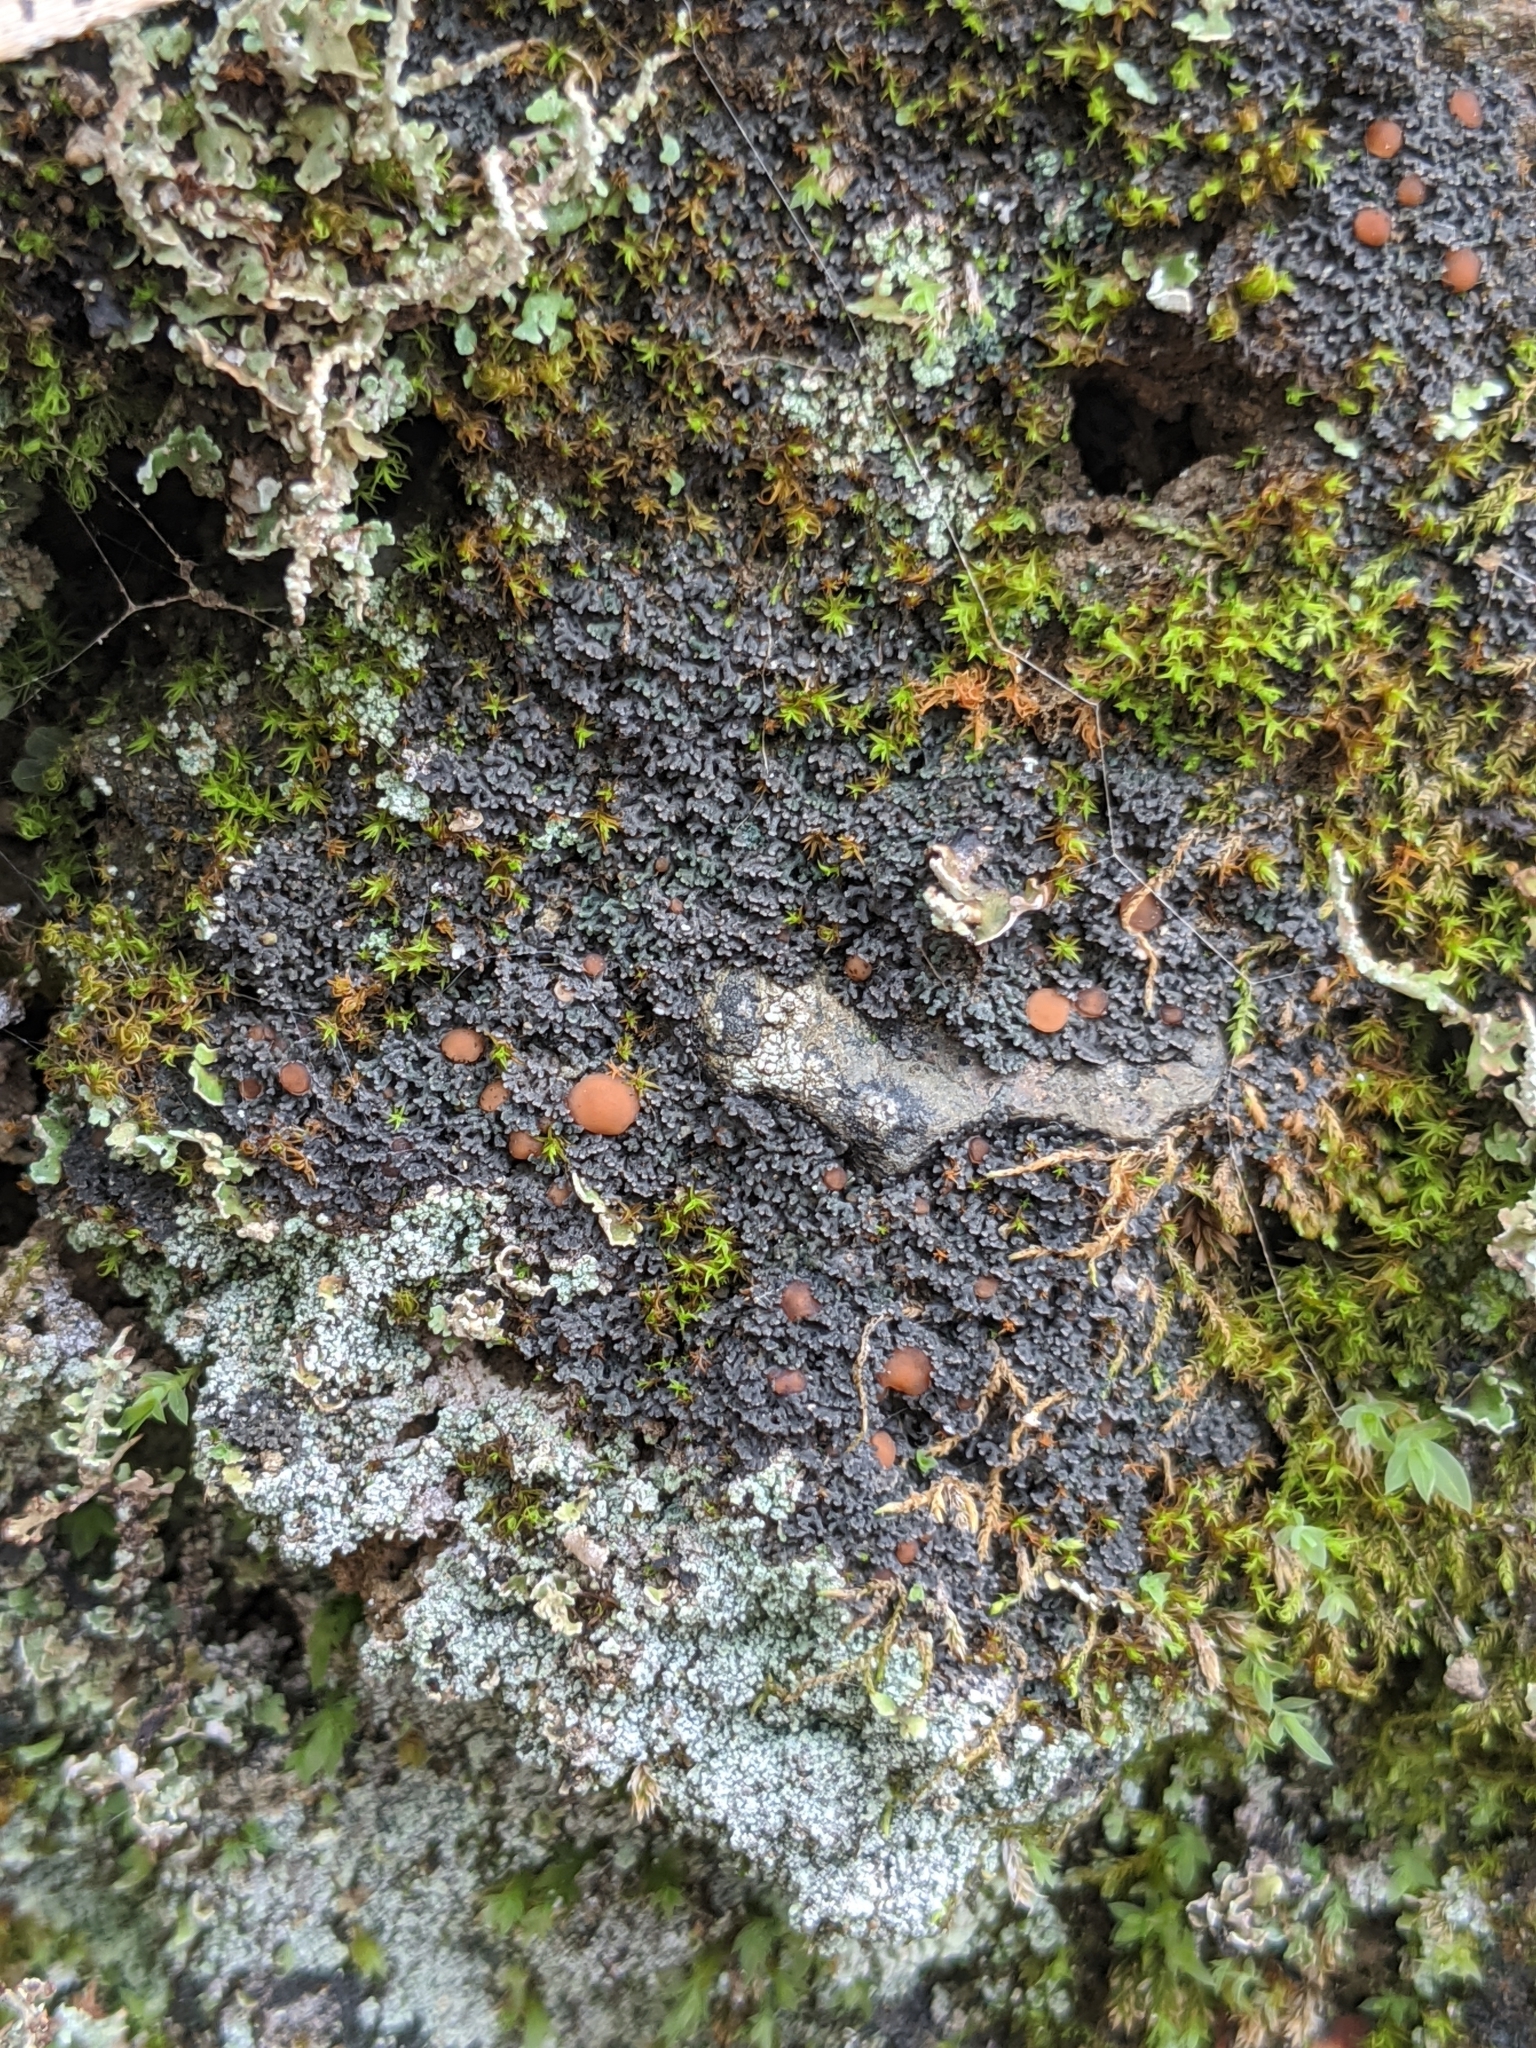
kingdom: Fungi
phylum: Ascomycota
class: Lecanoromycetes
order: Peltigerales
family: Pannariaceae
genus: Fuscopannaria
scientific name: Fuscopannaria coralloidea
